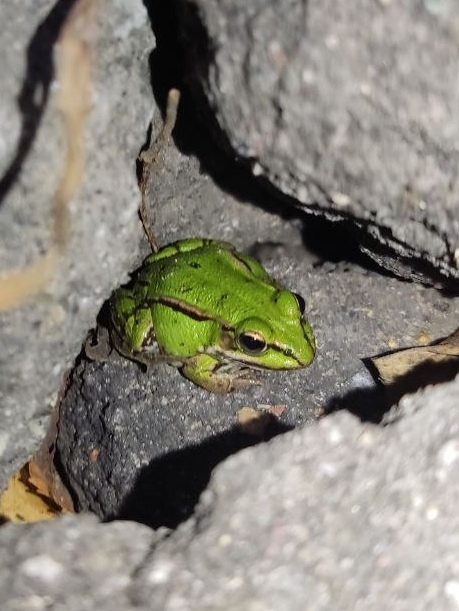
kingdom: Animalia
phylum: Chordata
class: Amphibia
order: Anura
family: Ranidae
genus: Pelophylax
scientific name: Pelophylax lessonae
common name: Pool frog
